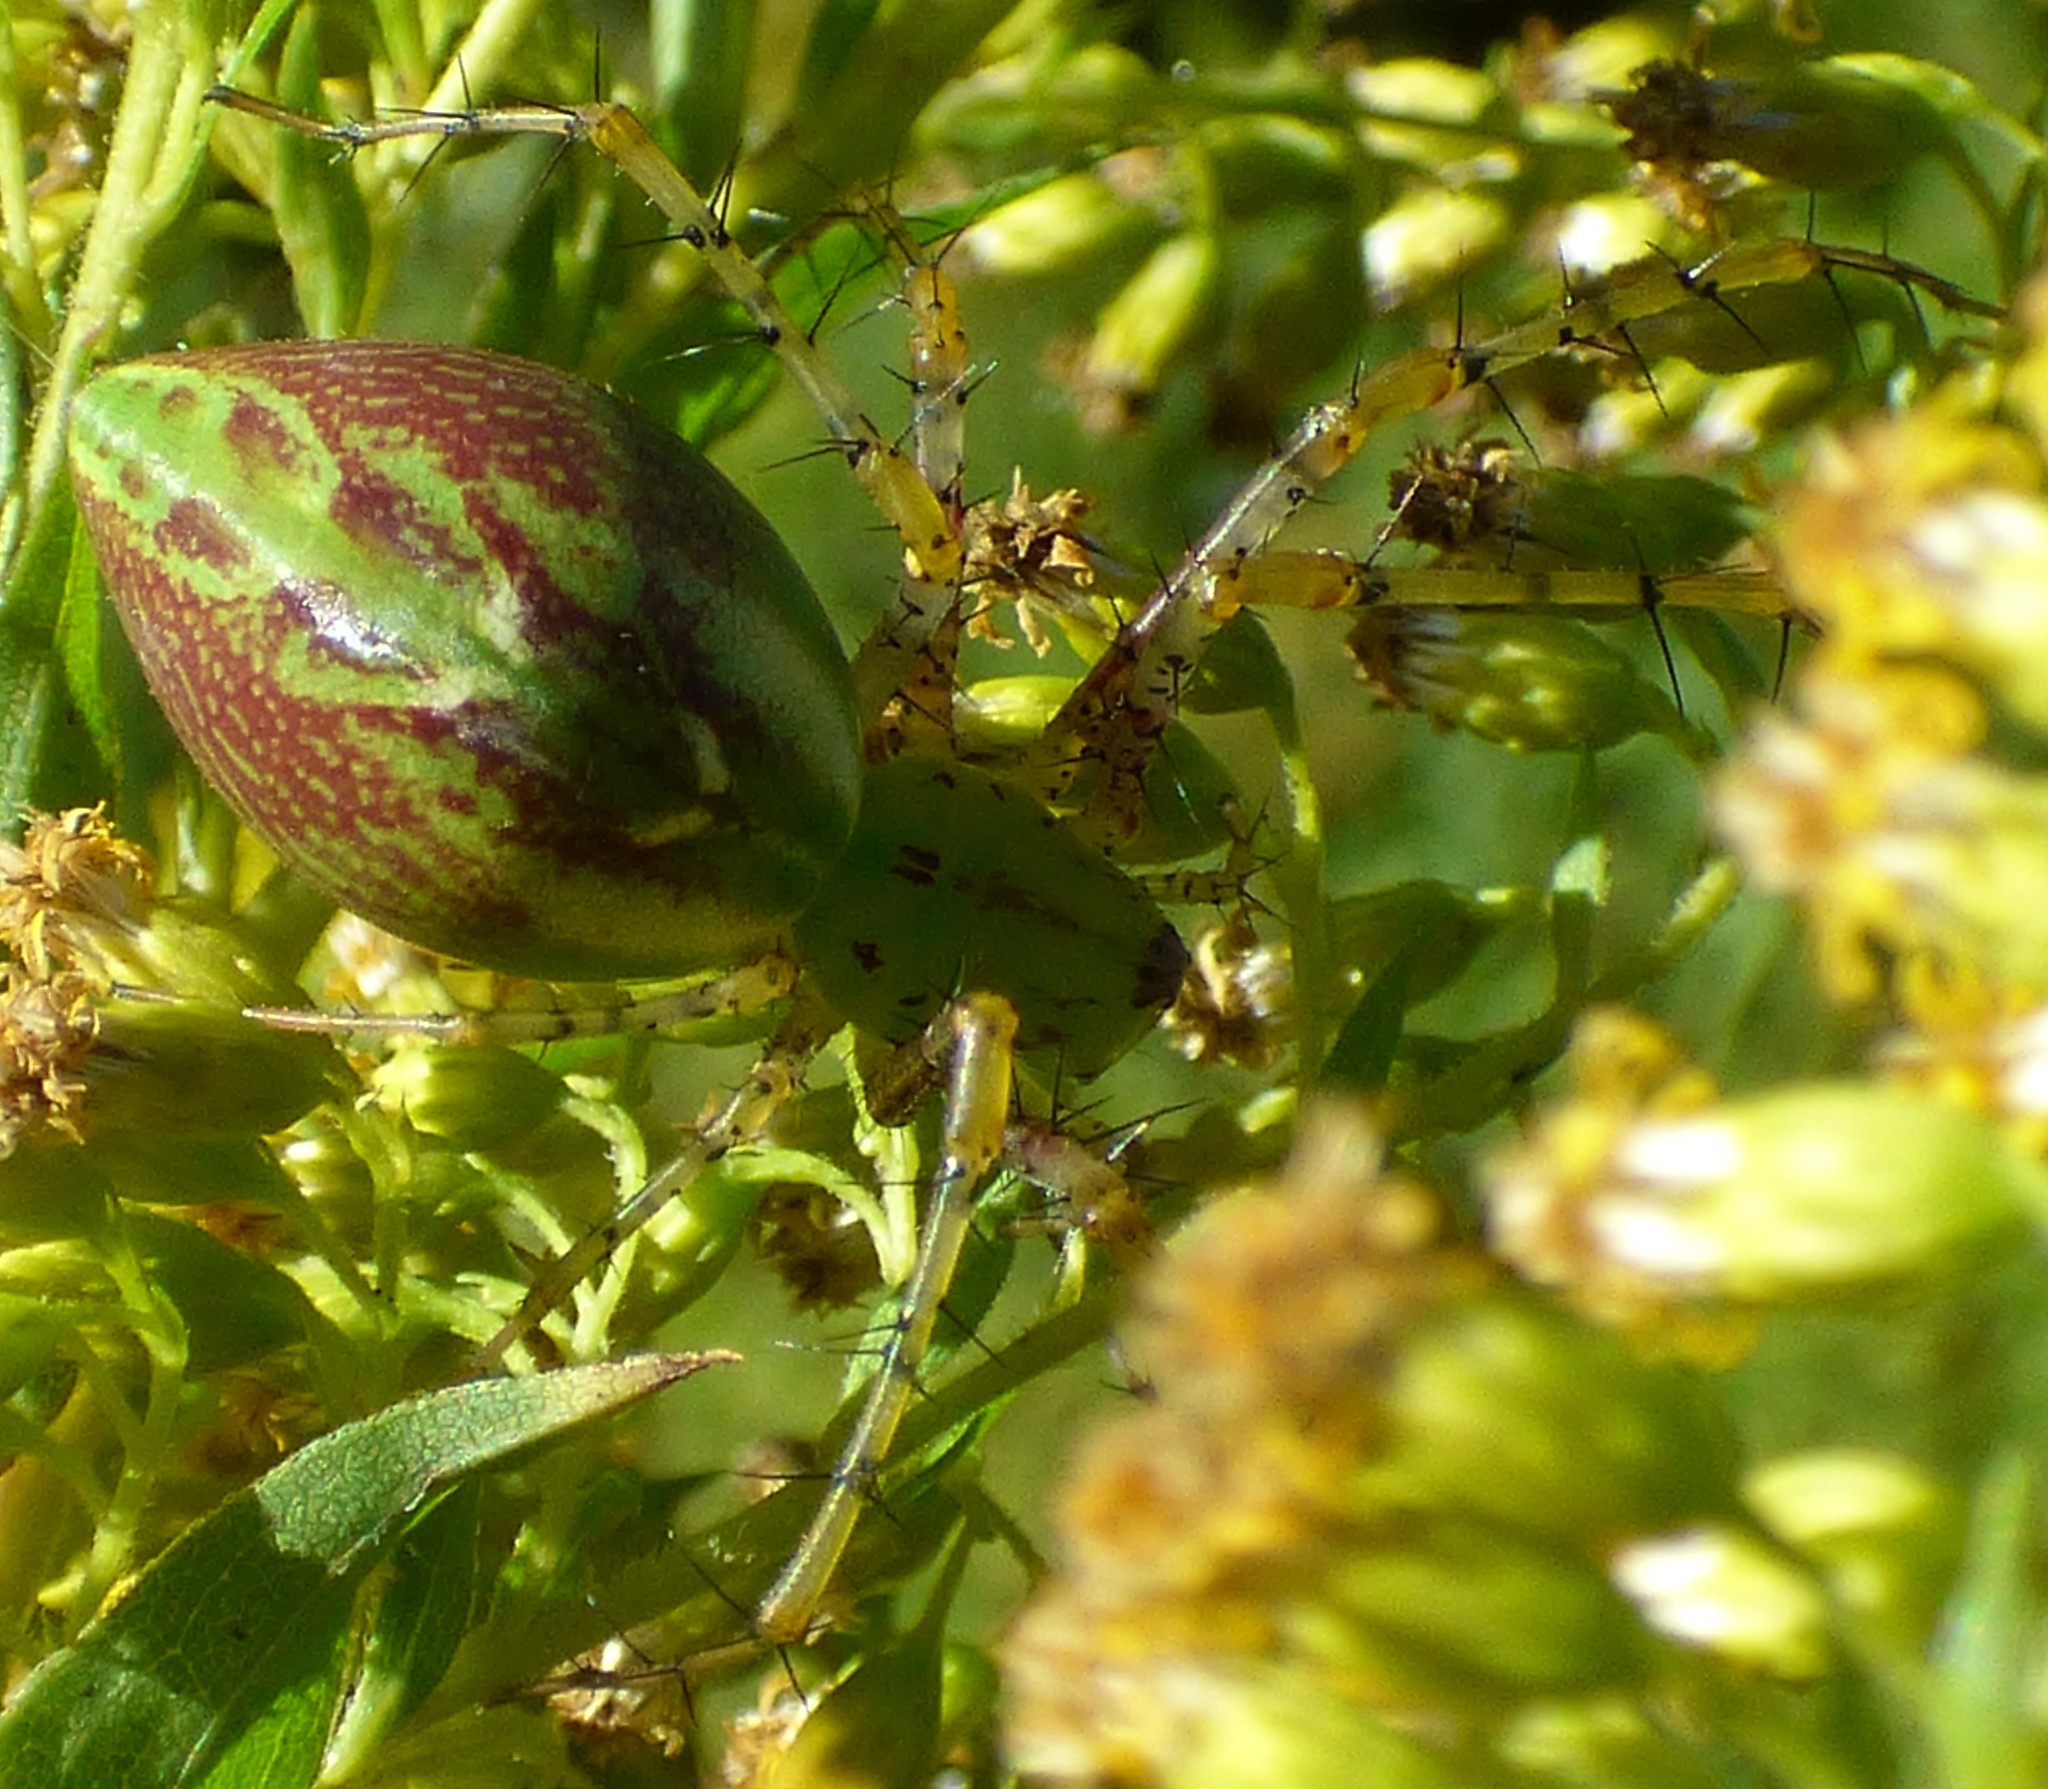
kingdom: Animalia
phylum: Arthropoda
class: Arachnida
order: Araneae
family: Oxyopidae
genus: Peucetia
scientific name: Peucetia viridans
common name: Lynx spiders
